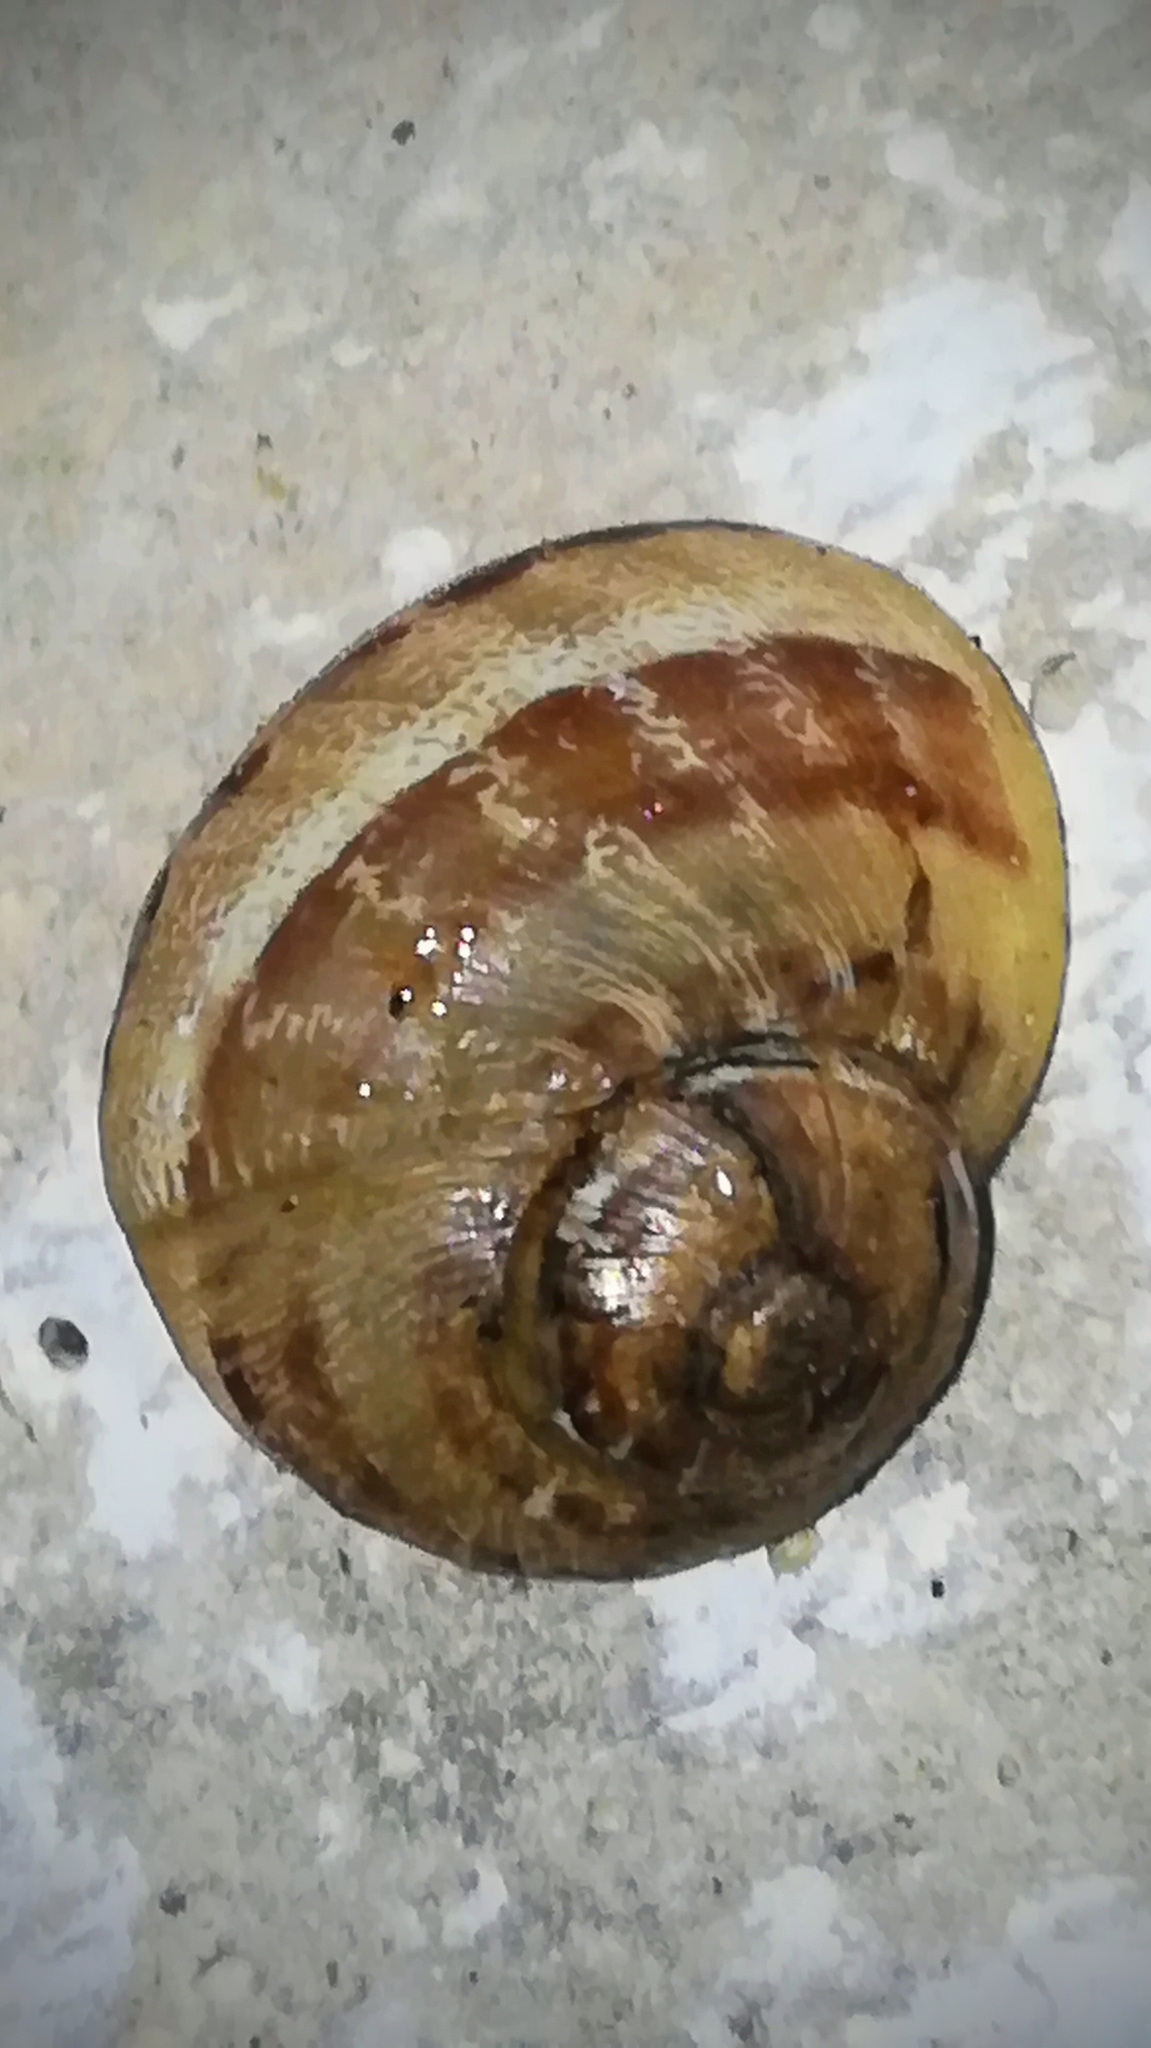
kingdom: Animalia
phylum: Mollusca
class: Gastropoda
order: Stylommatophora
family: Helicidae
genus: Cornu
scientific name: Cornu aspersum
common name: Brown garden snail
